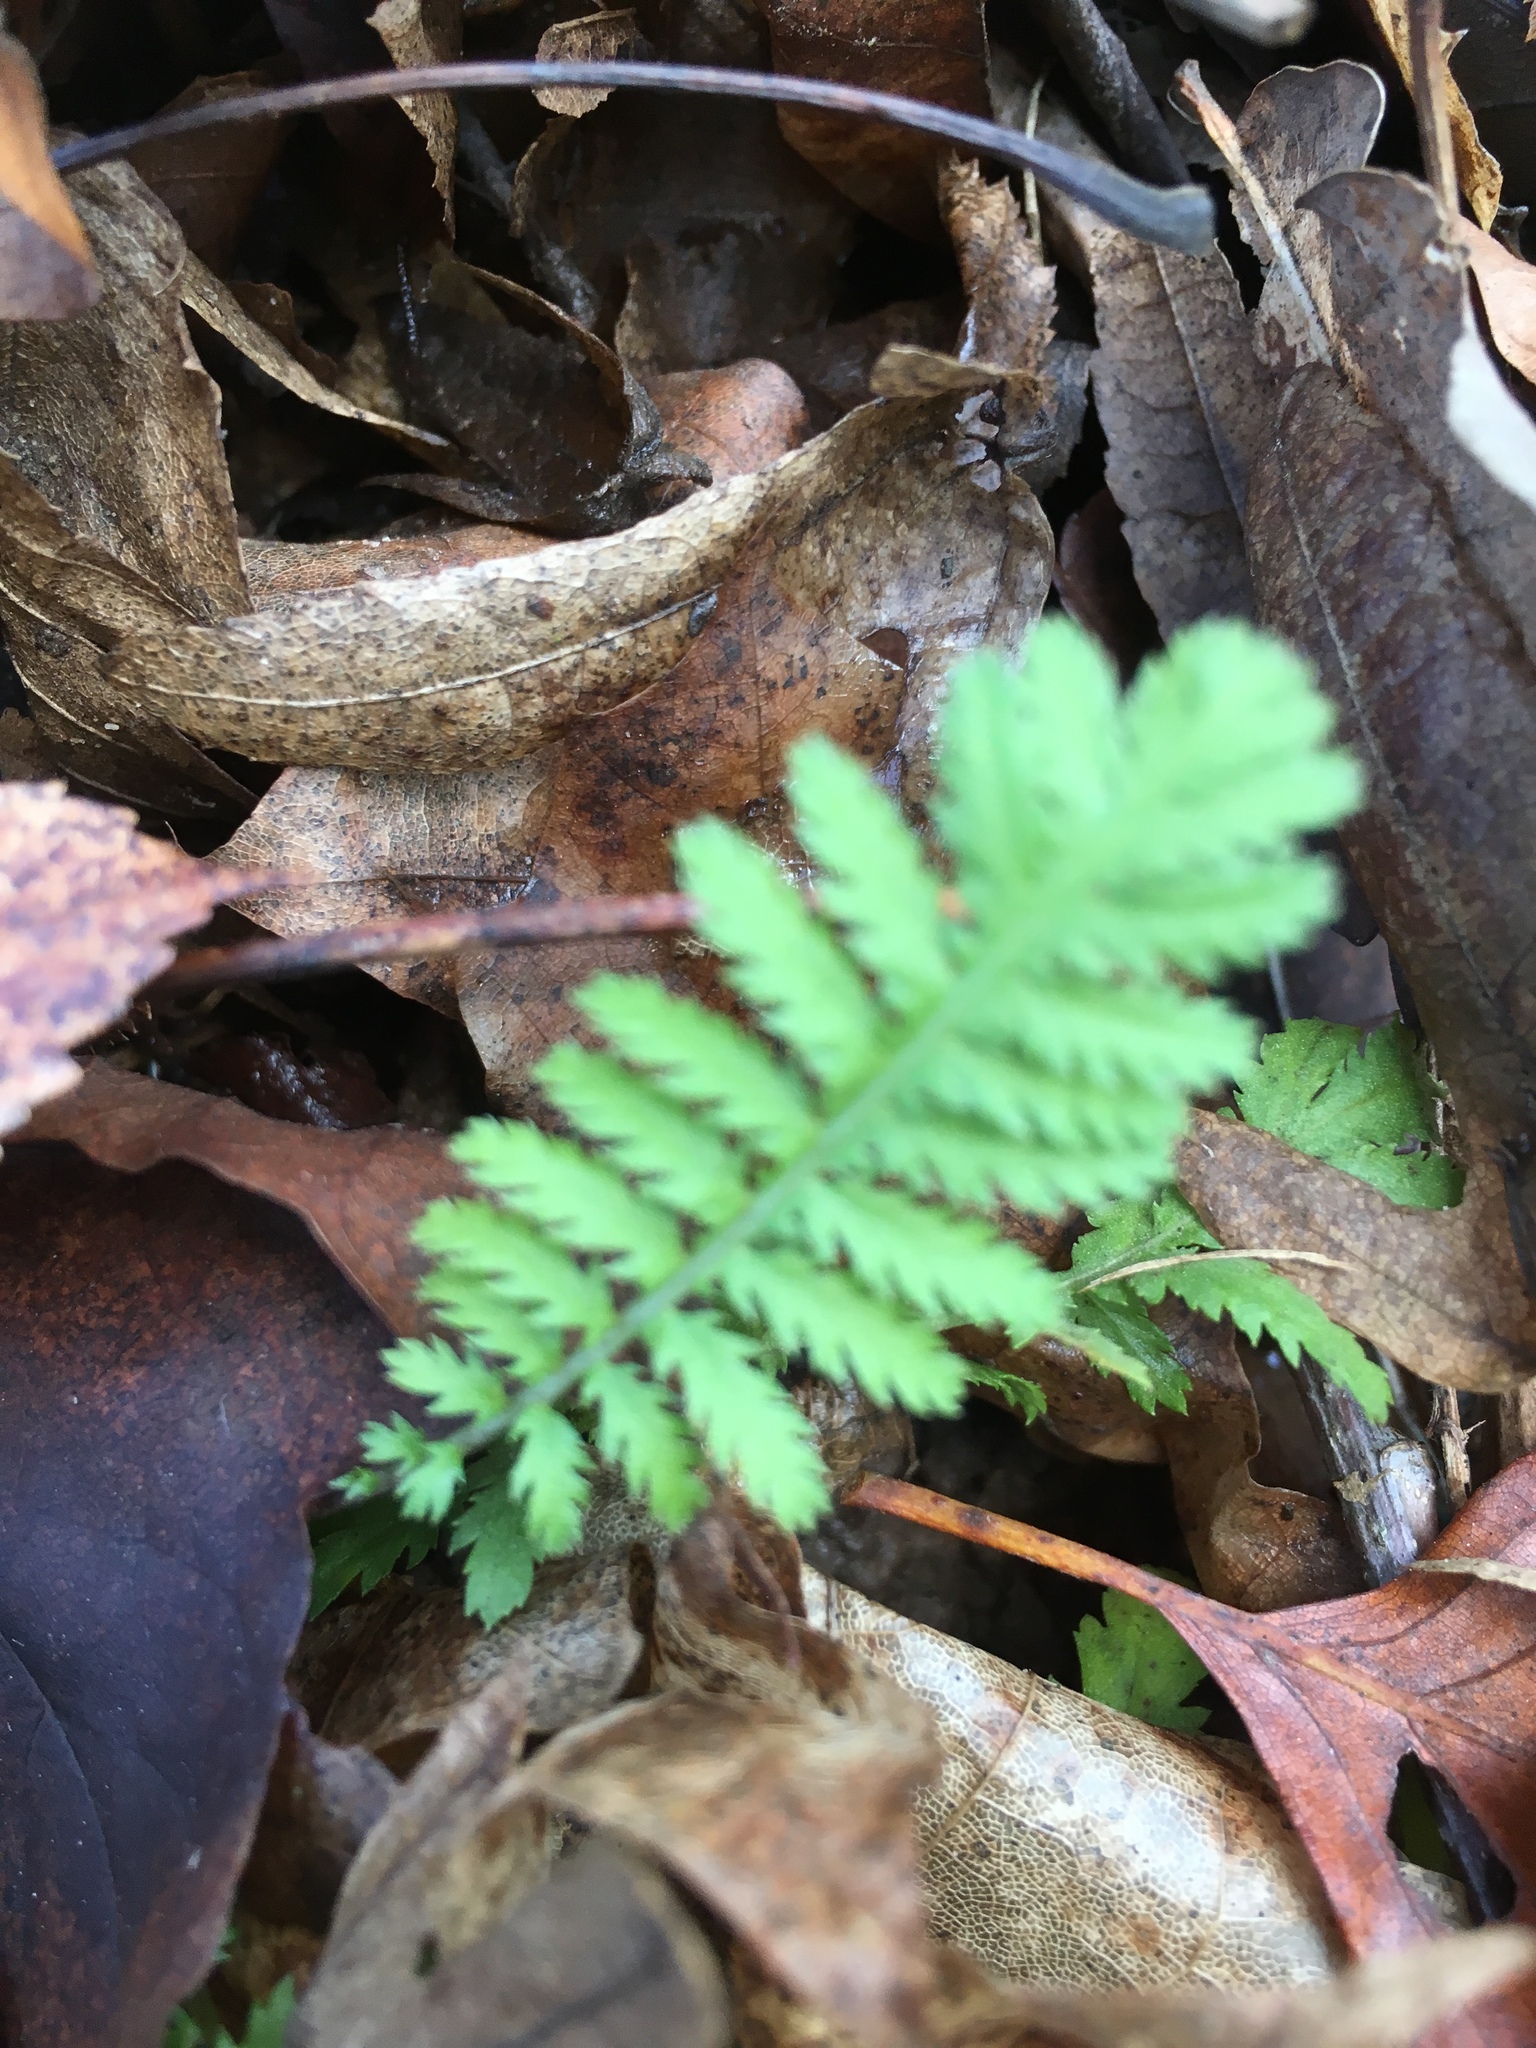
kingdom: Plantae
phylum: Tracheophyta
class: Magnoliopsida
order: Asterales
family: Asteraceae
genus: Tanacetum
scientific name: Tanacetum vulgare
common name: Common tansy
